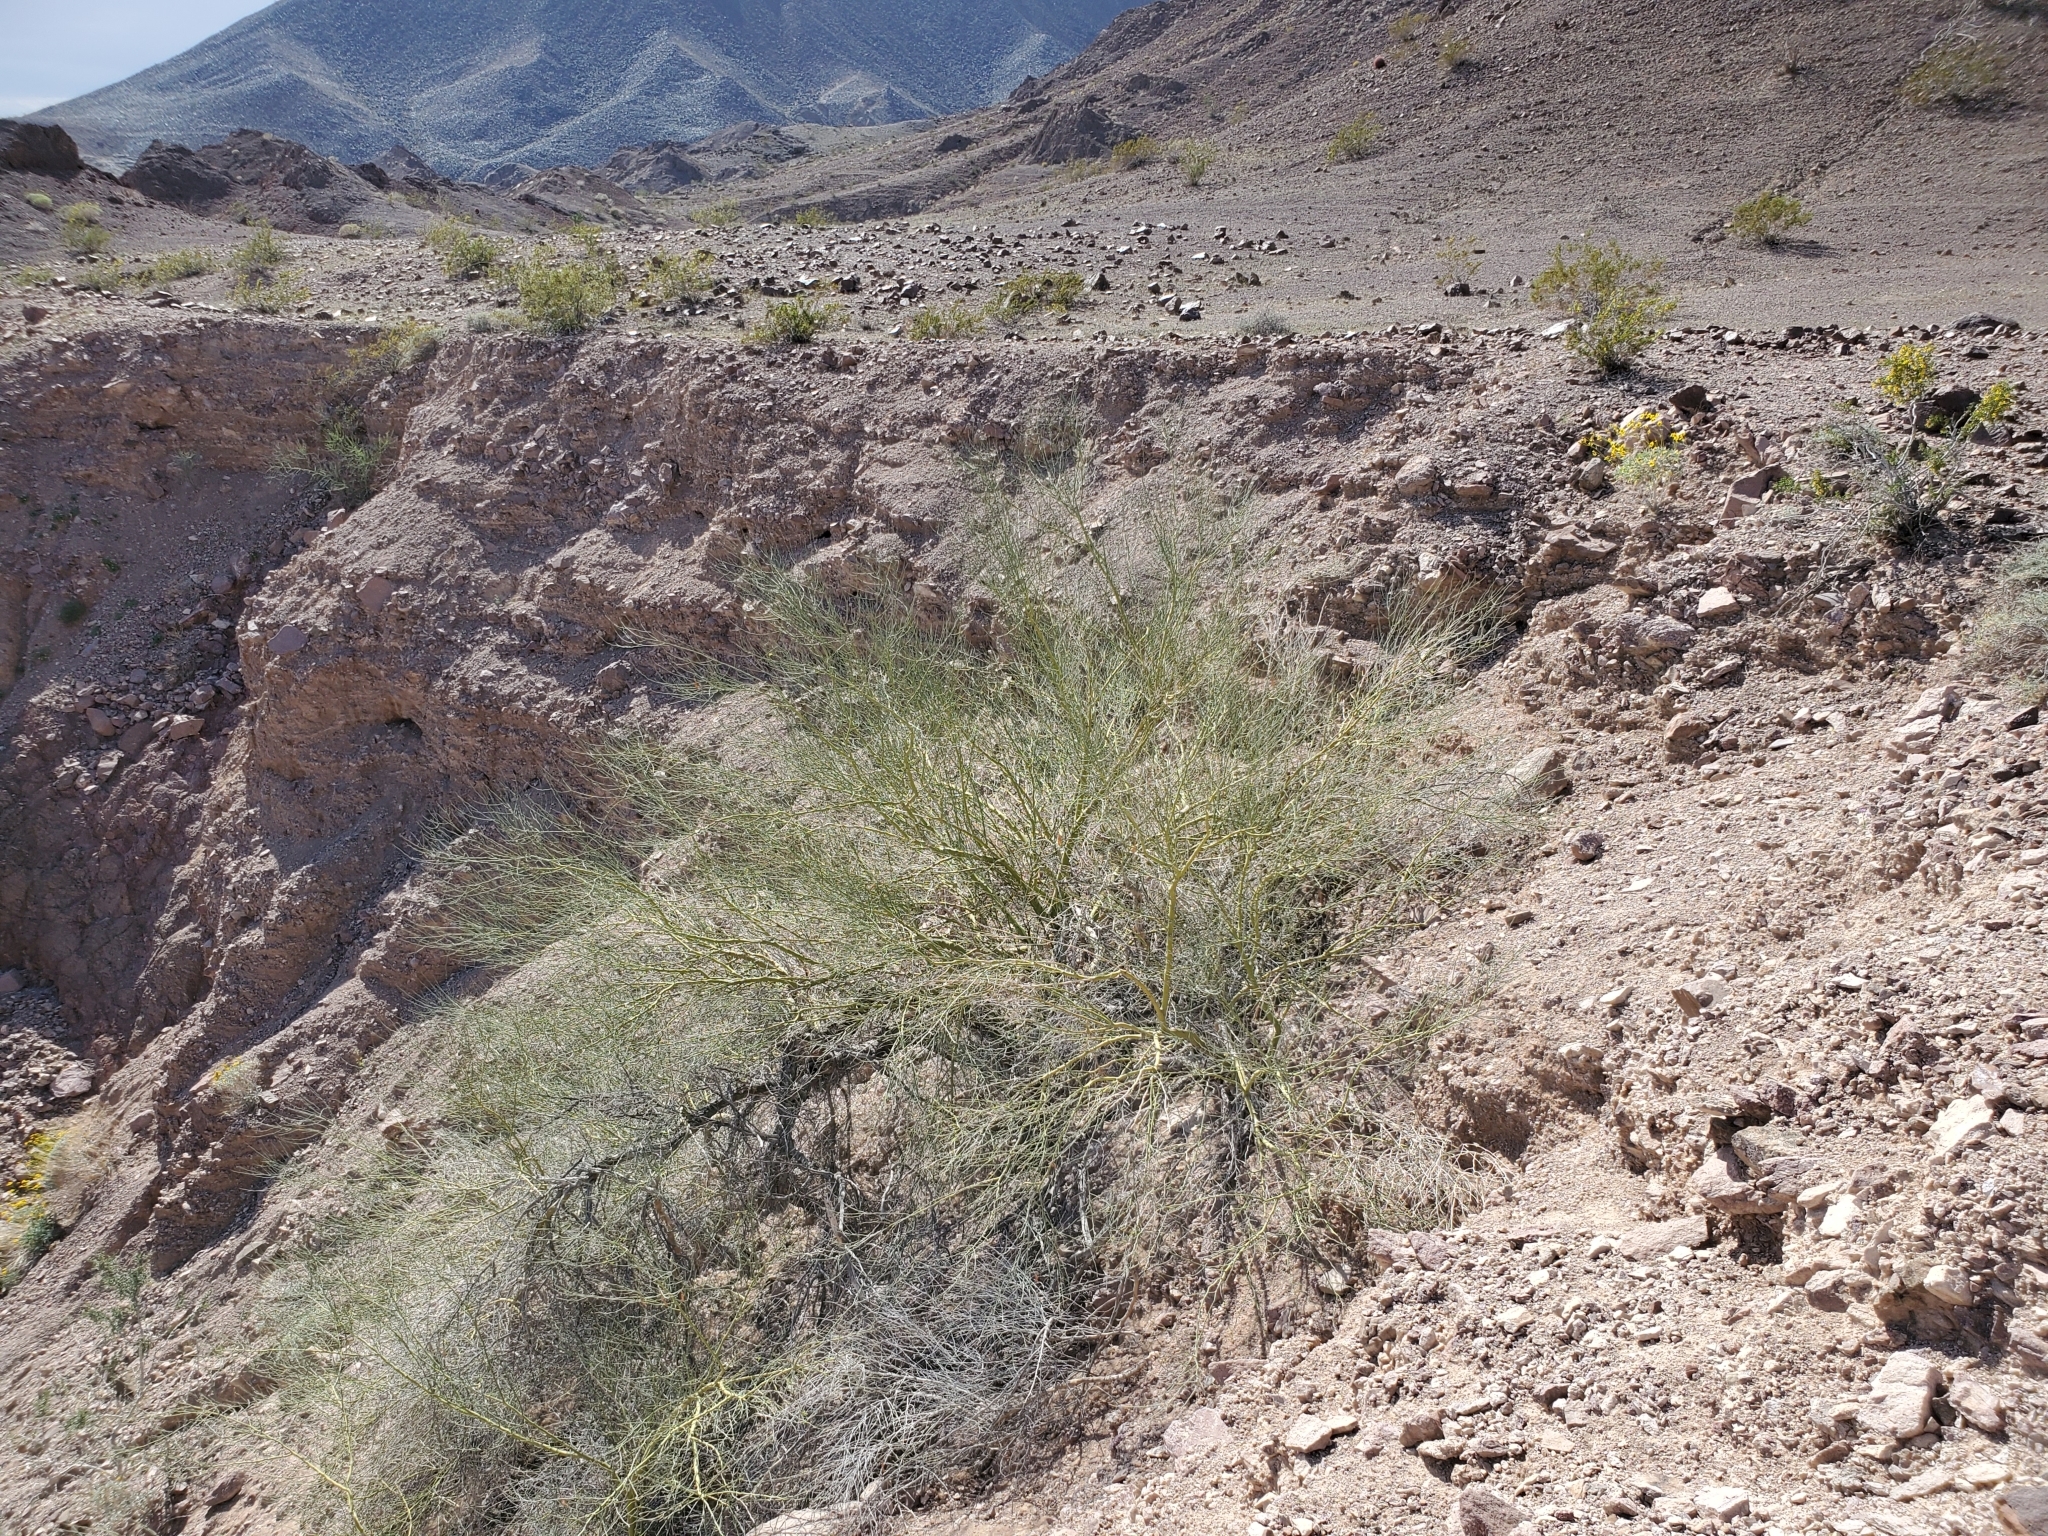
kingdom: Plantae
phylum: Tracheophyta
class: Magnoliopsida
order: Fabales
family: Fabaceae
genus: Parkinsonia
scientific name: Parkinsonia florida
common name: Blue paloverde
